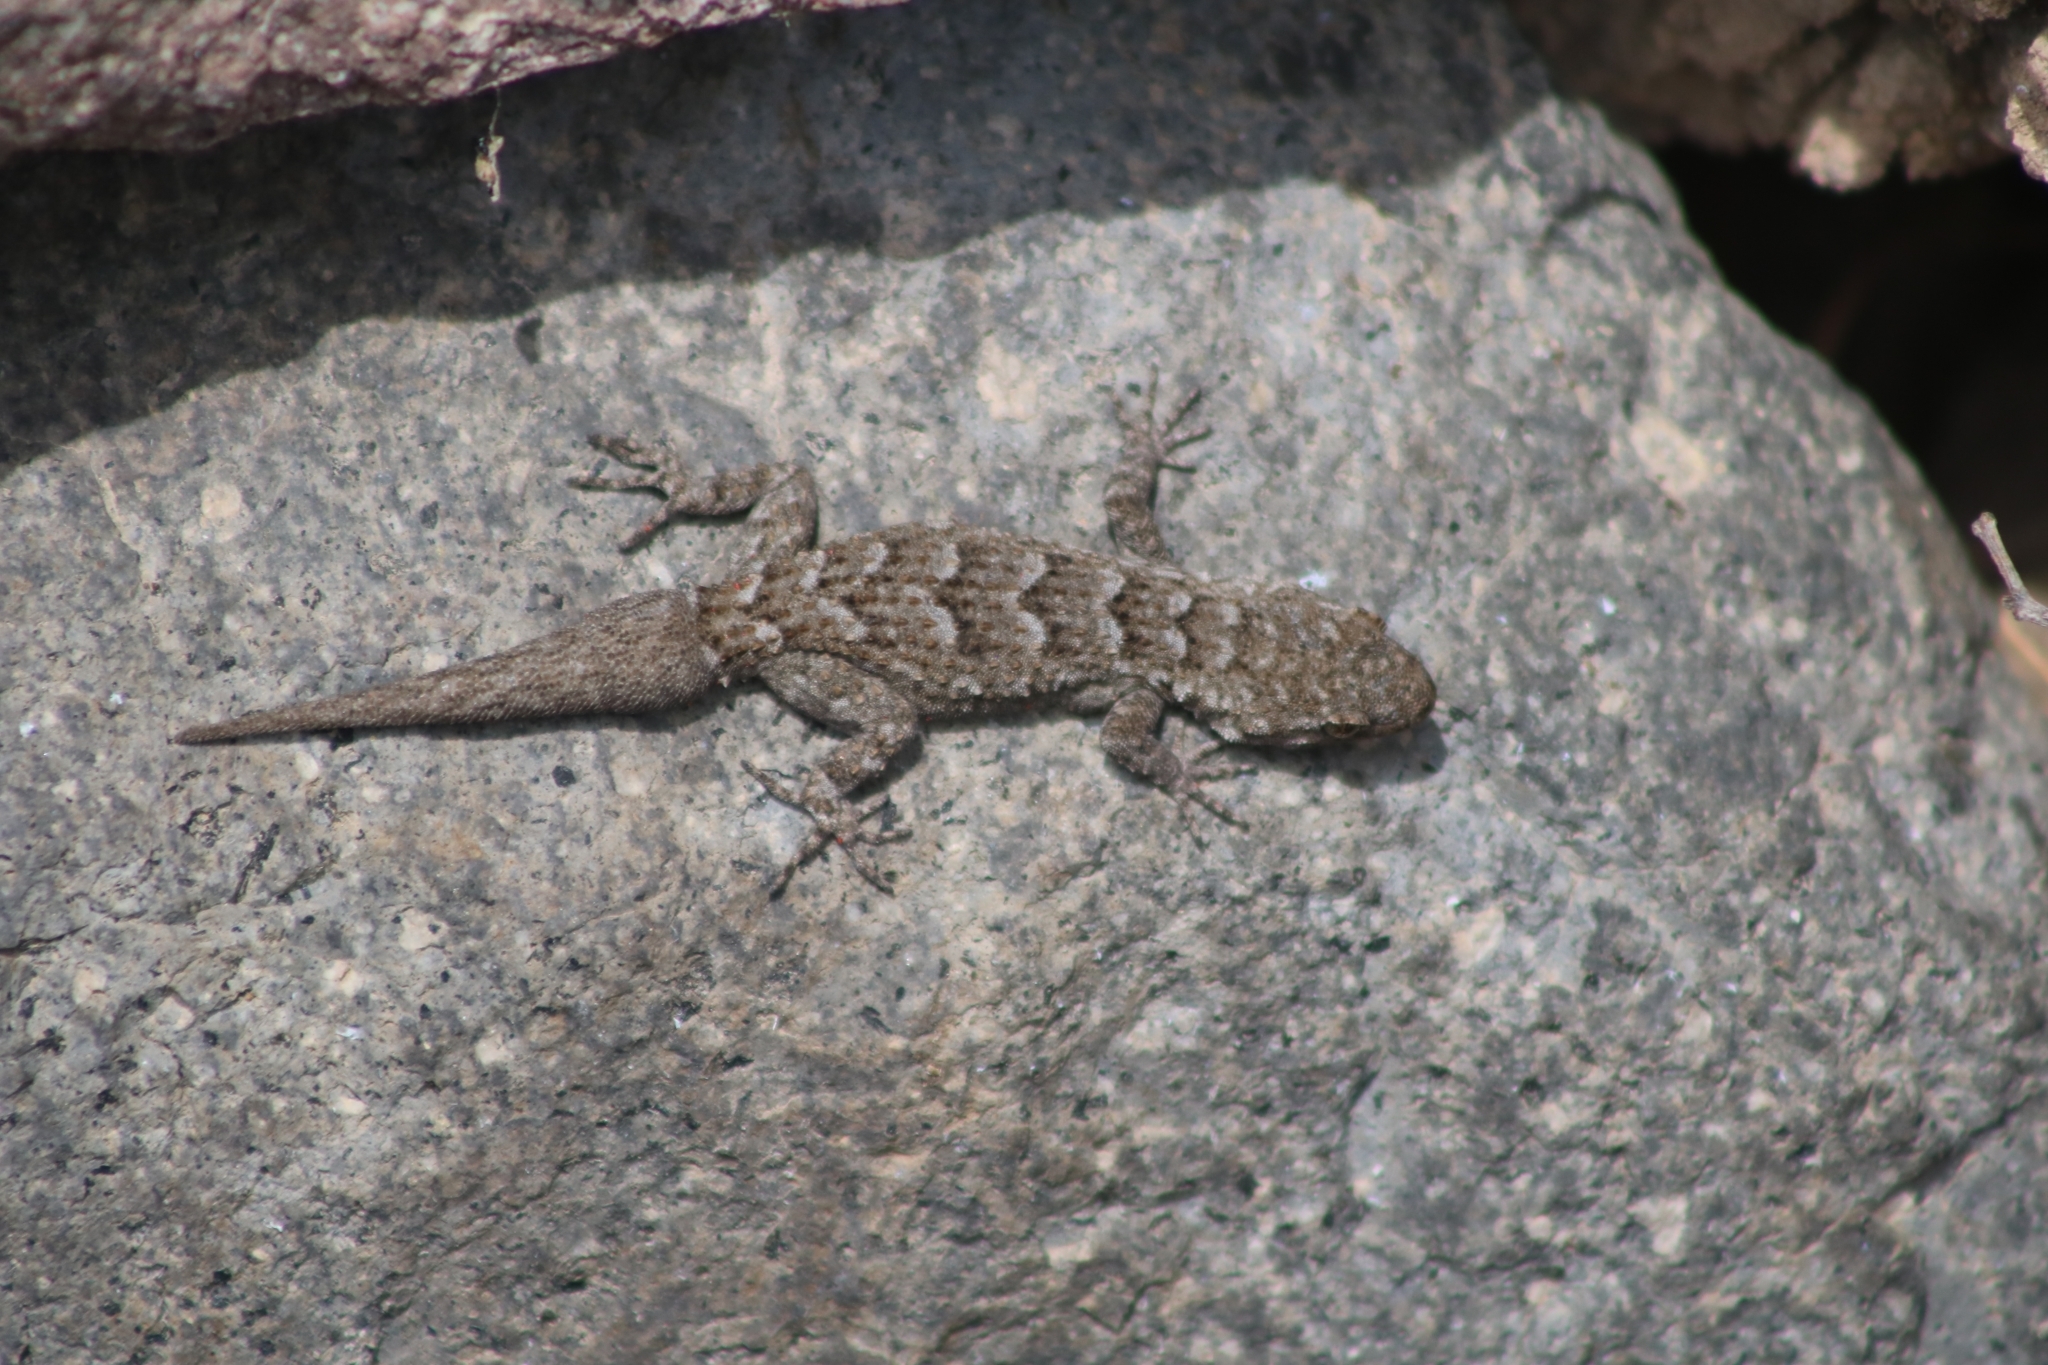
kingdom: Animalia
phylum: Chordata
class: Squamata
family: Gekkonidae
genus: Mediodactylus
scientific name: Mediodactylus kotschyi
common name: Kotschy's gecko
